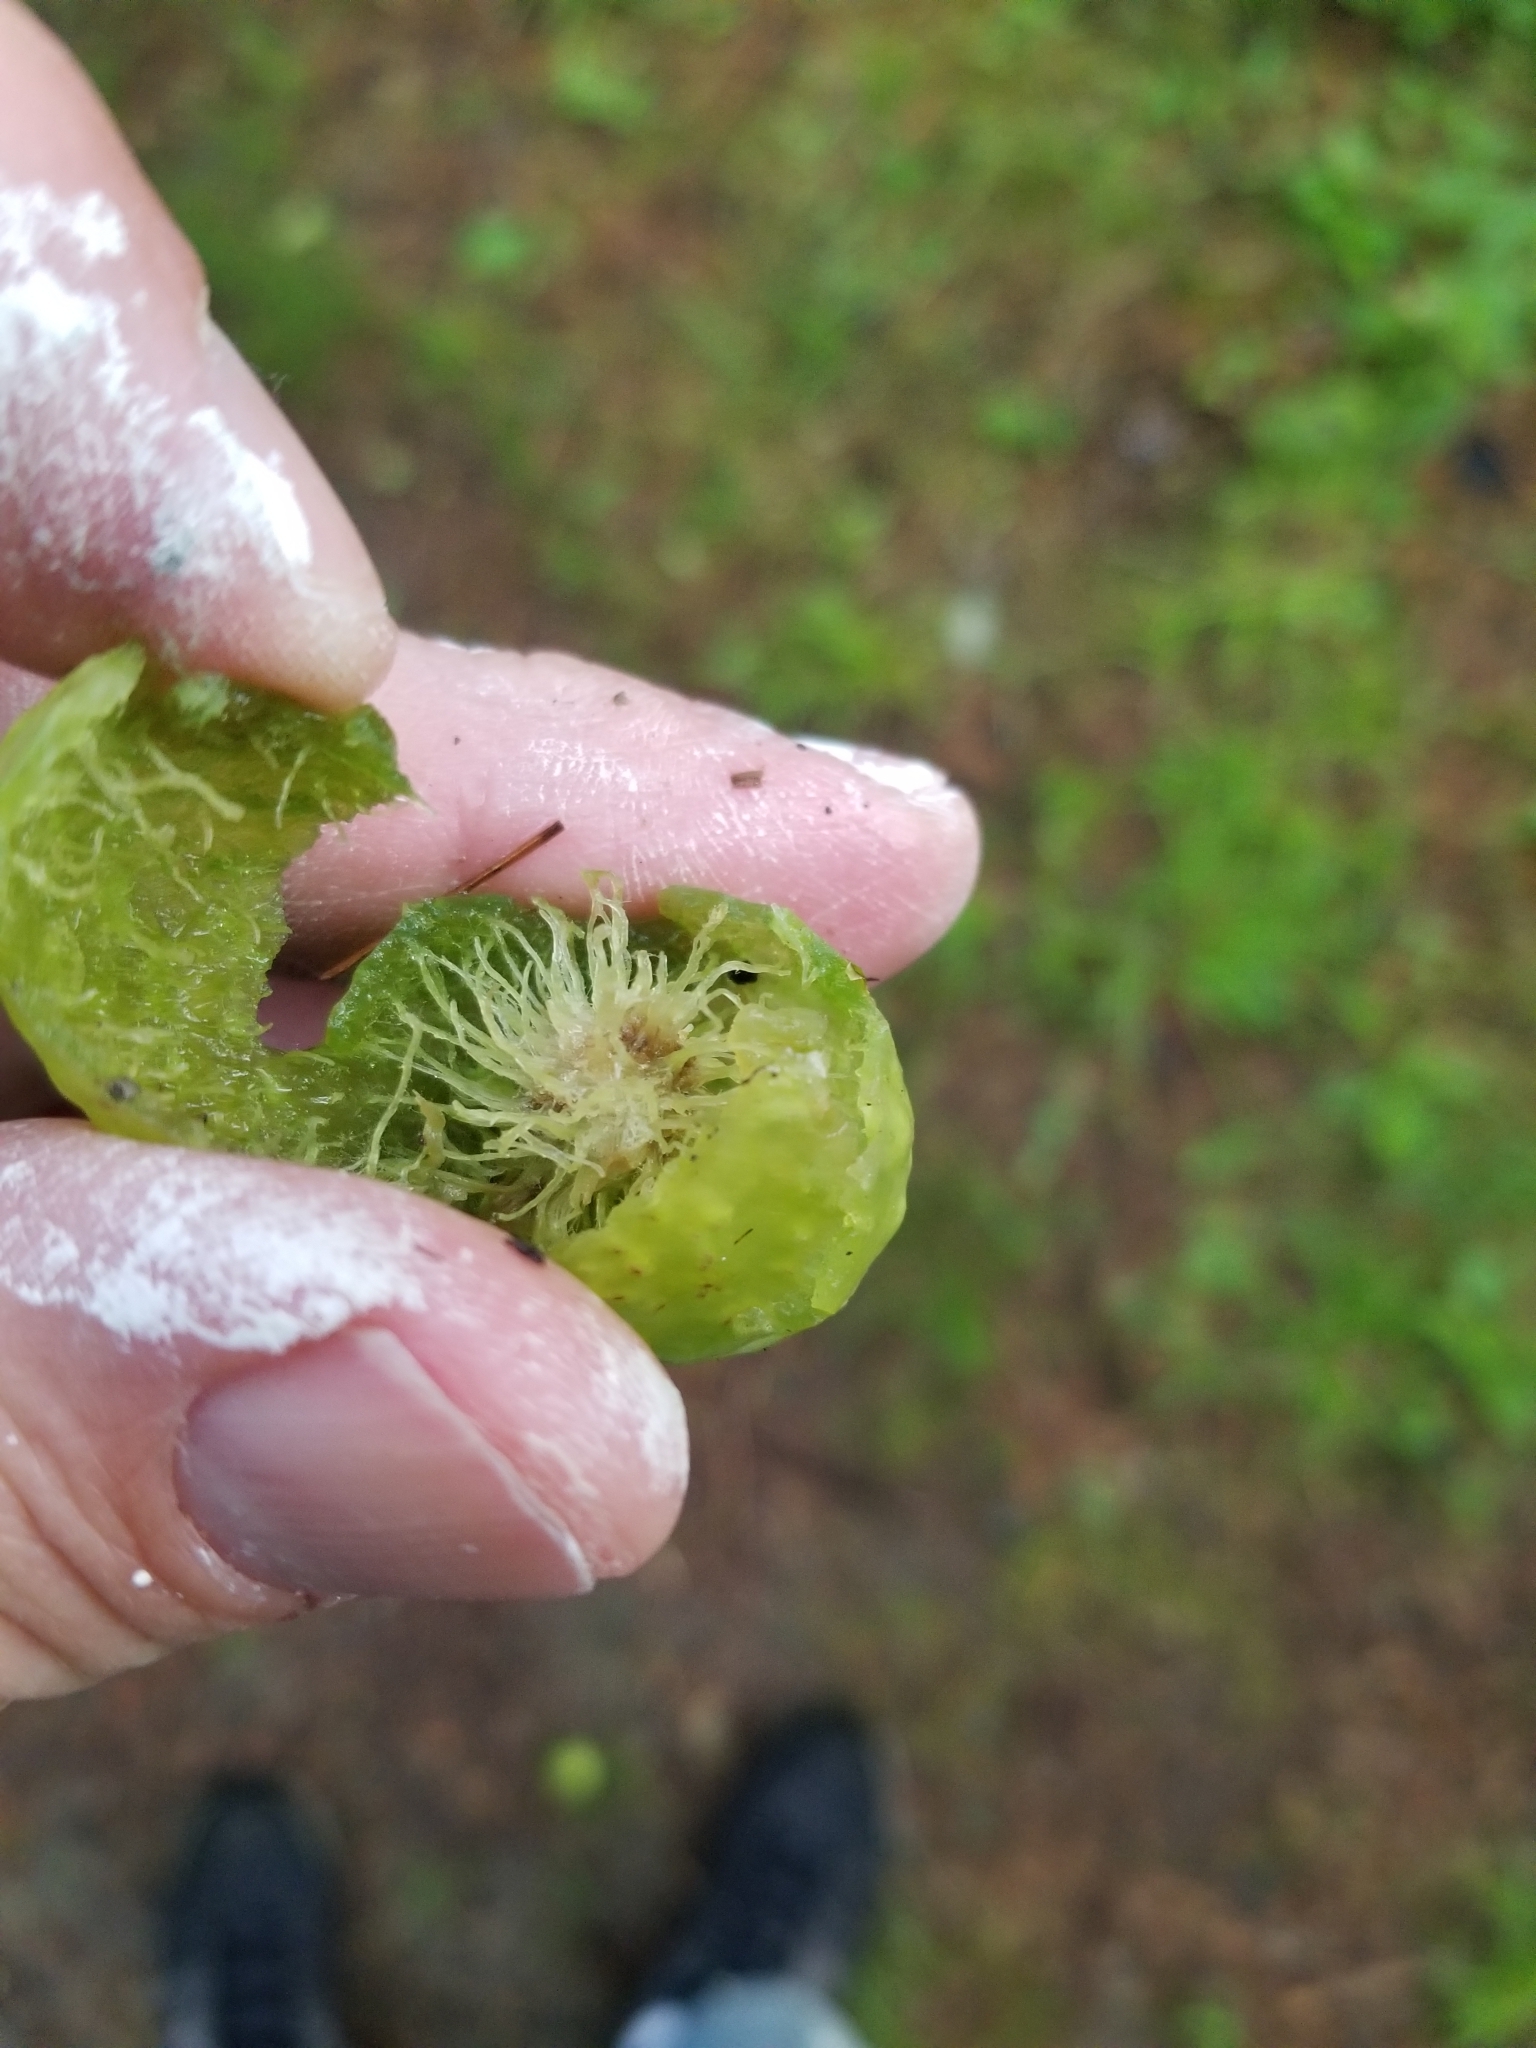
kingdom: Animalia
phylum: Arthropoda
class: Insecta
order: Hymenoptera
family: Cynipidae
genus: Amphibolips
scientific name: Amphibolips
